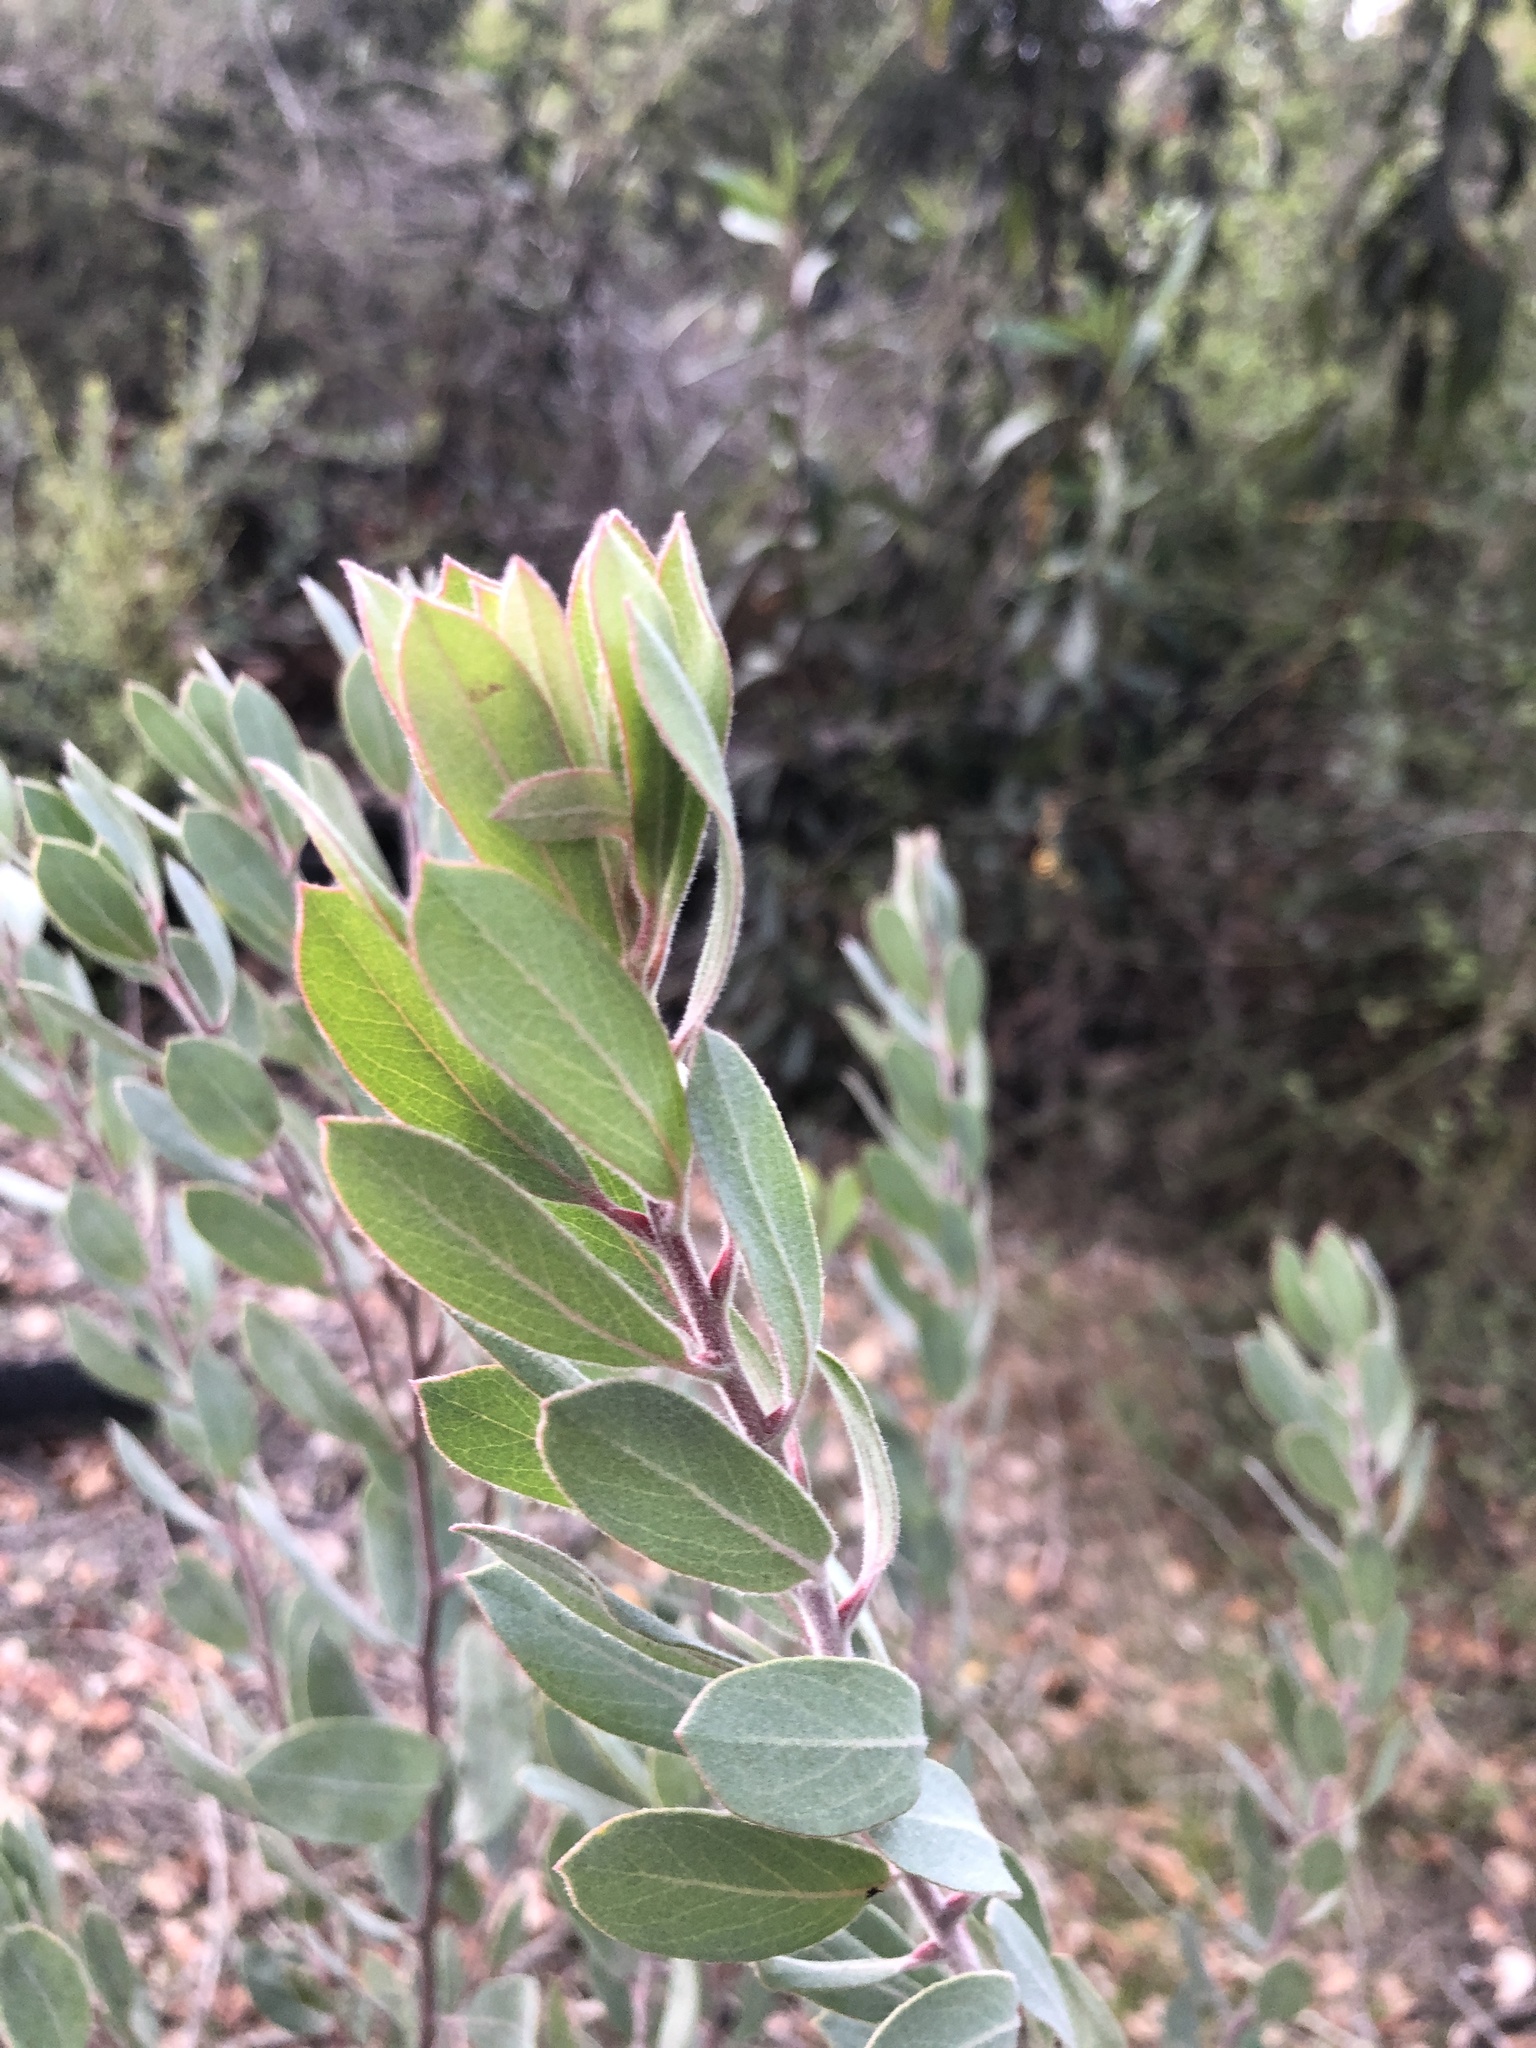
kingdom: Plantae
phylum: Tracheophyta
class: Magnoliopsida
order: Ericales
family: Ericaceae
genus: Arctostaphylos
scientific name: Arctostaphylos silvicola
